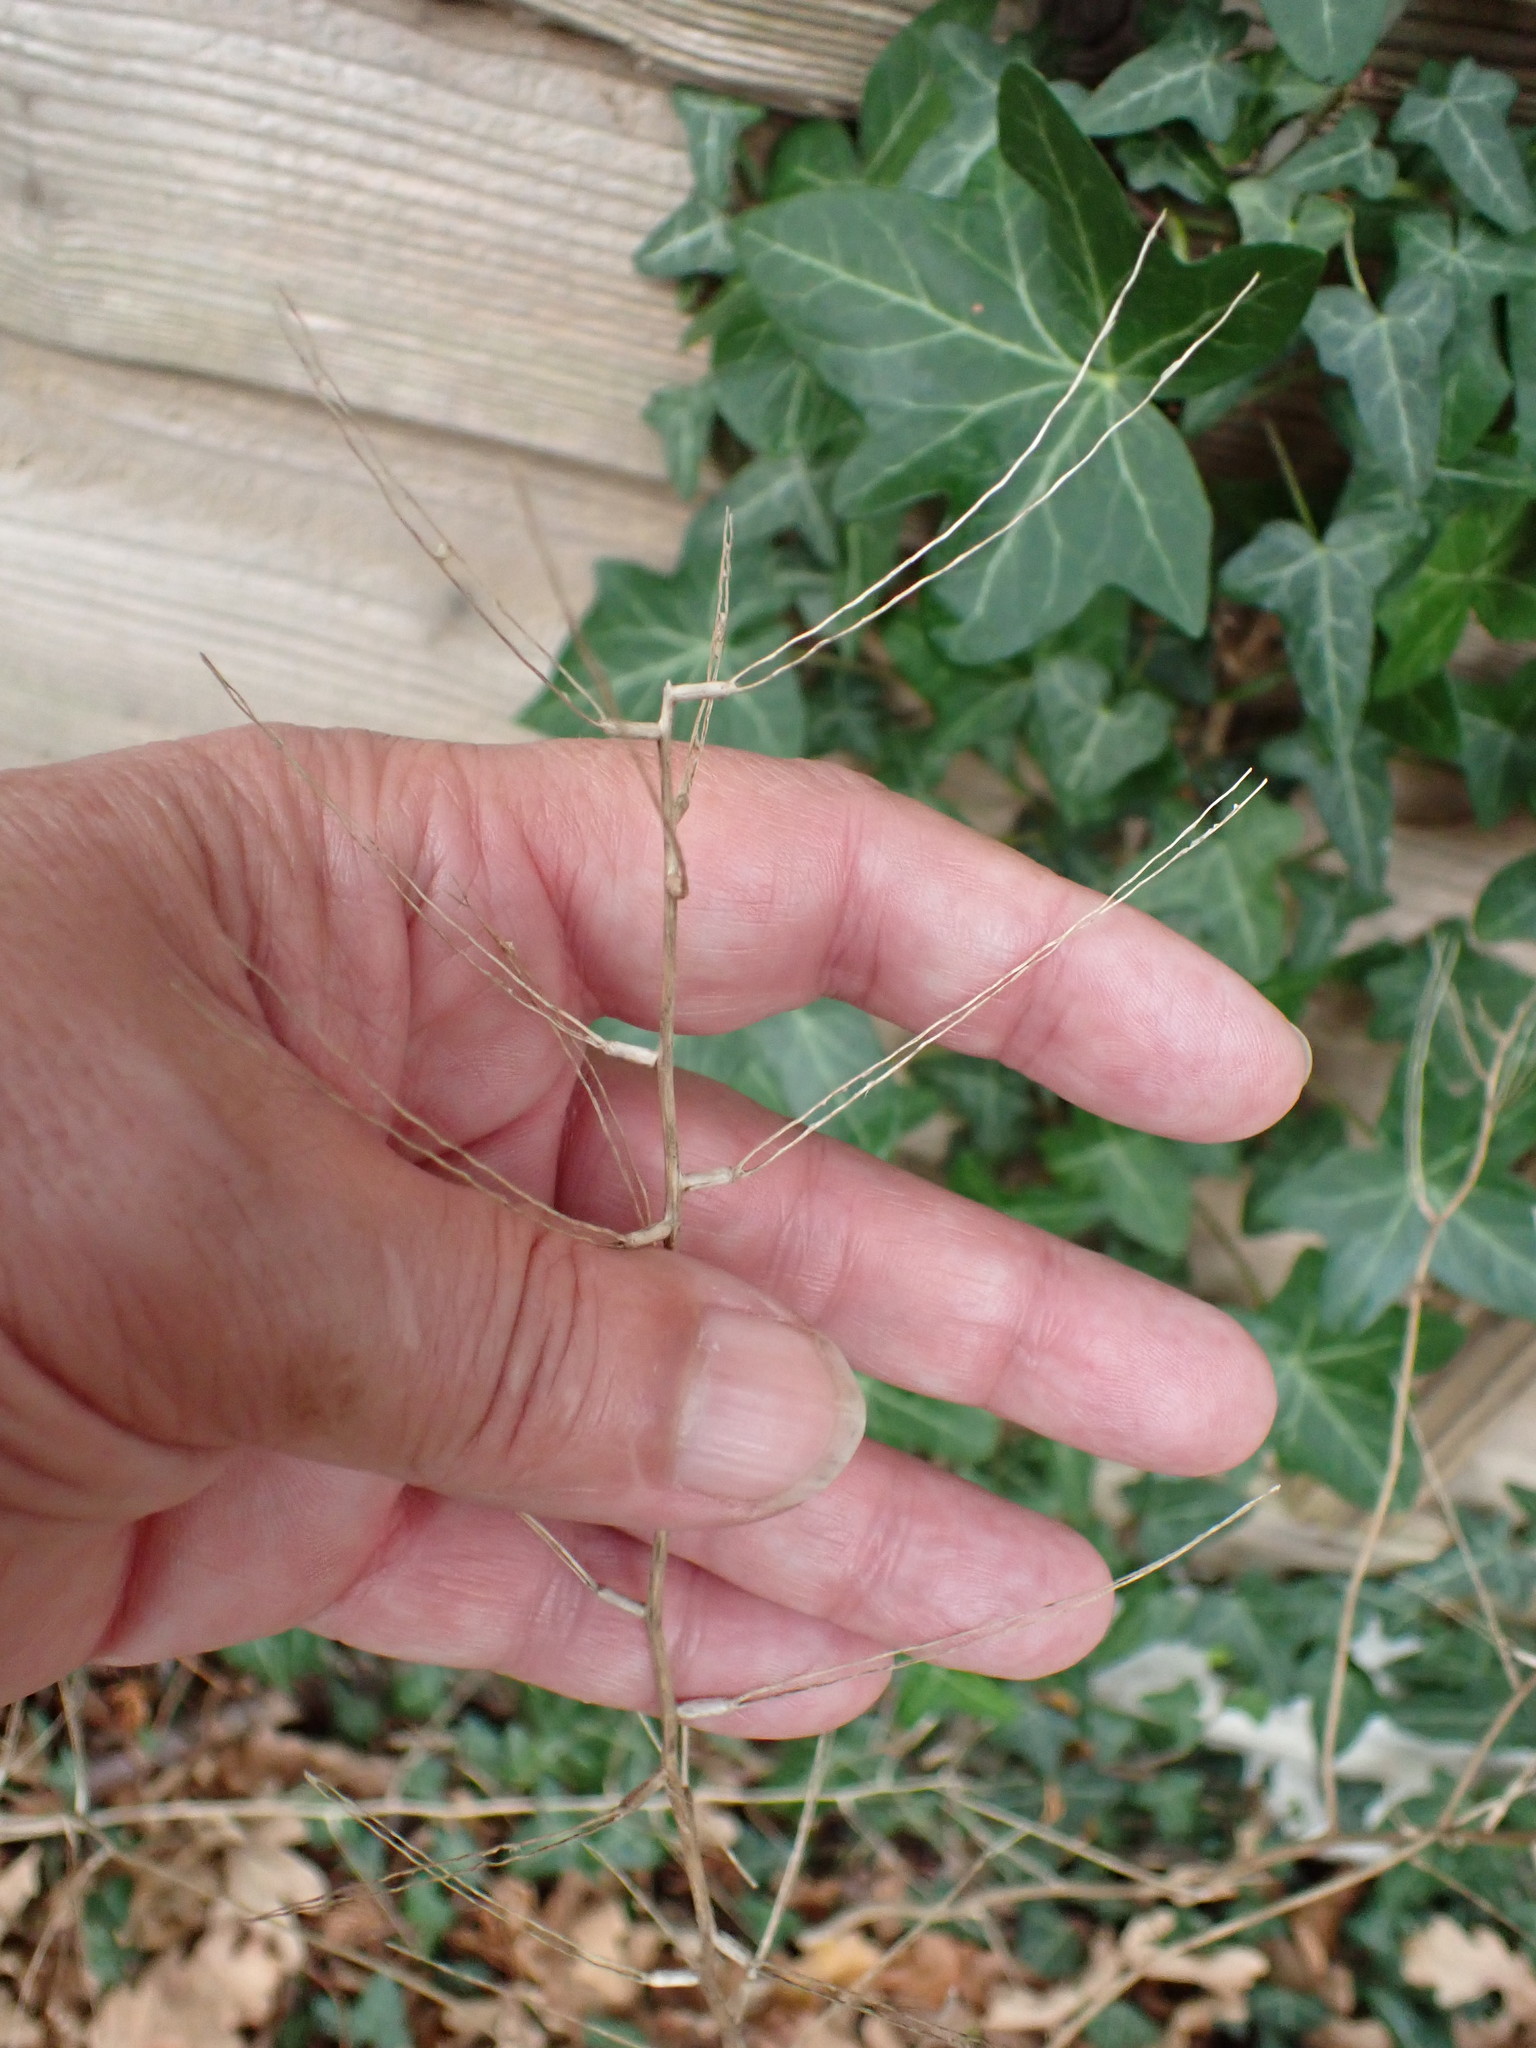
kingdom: Plantae
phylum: Tracheophyta
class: Magnoliopsida
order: Brassicales
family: Brassicaceae
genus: Alliaria
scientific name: Alliaria petiolata
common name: Garlic mustard
